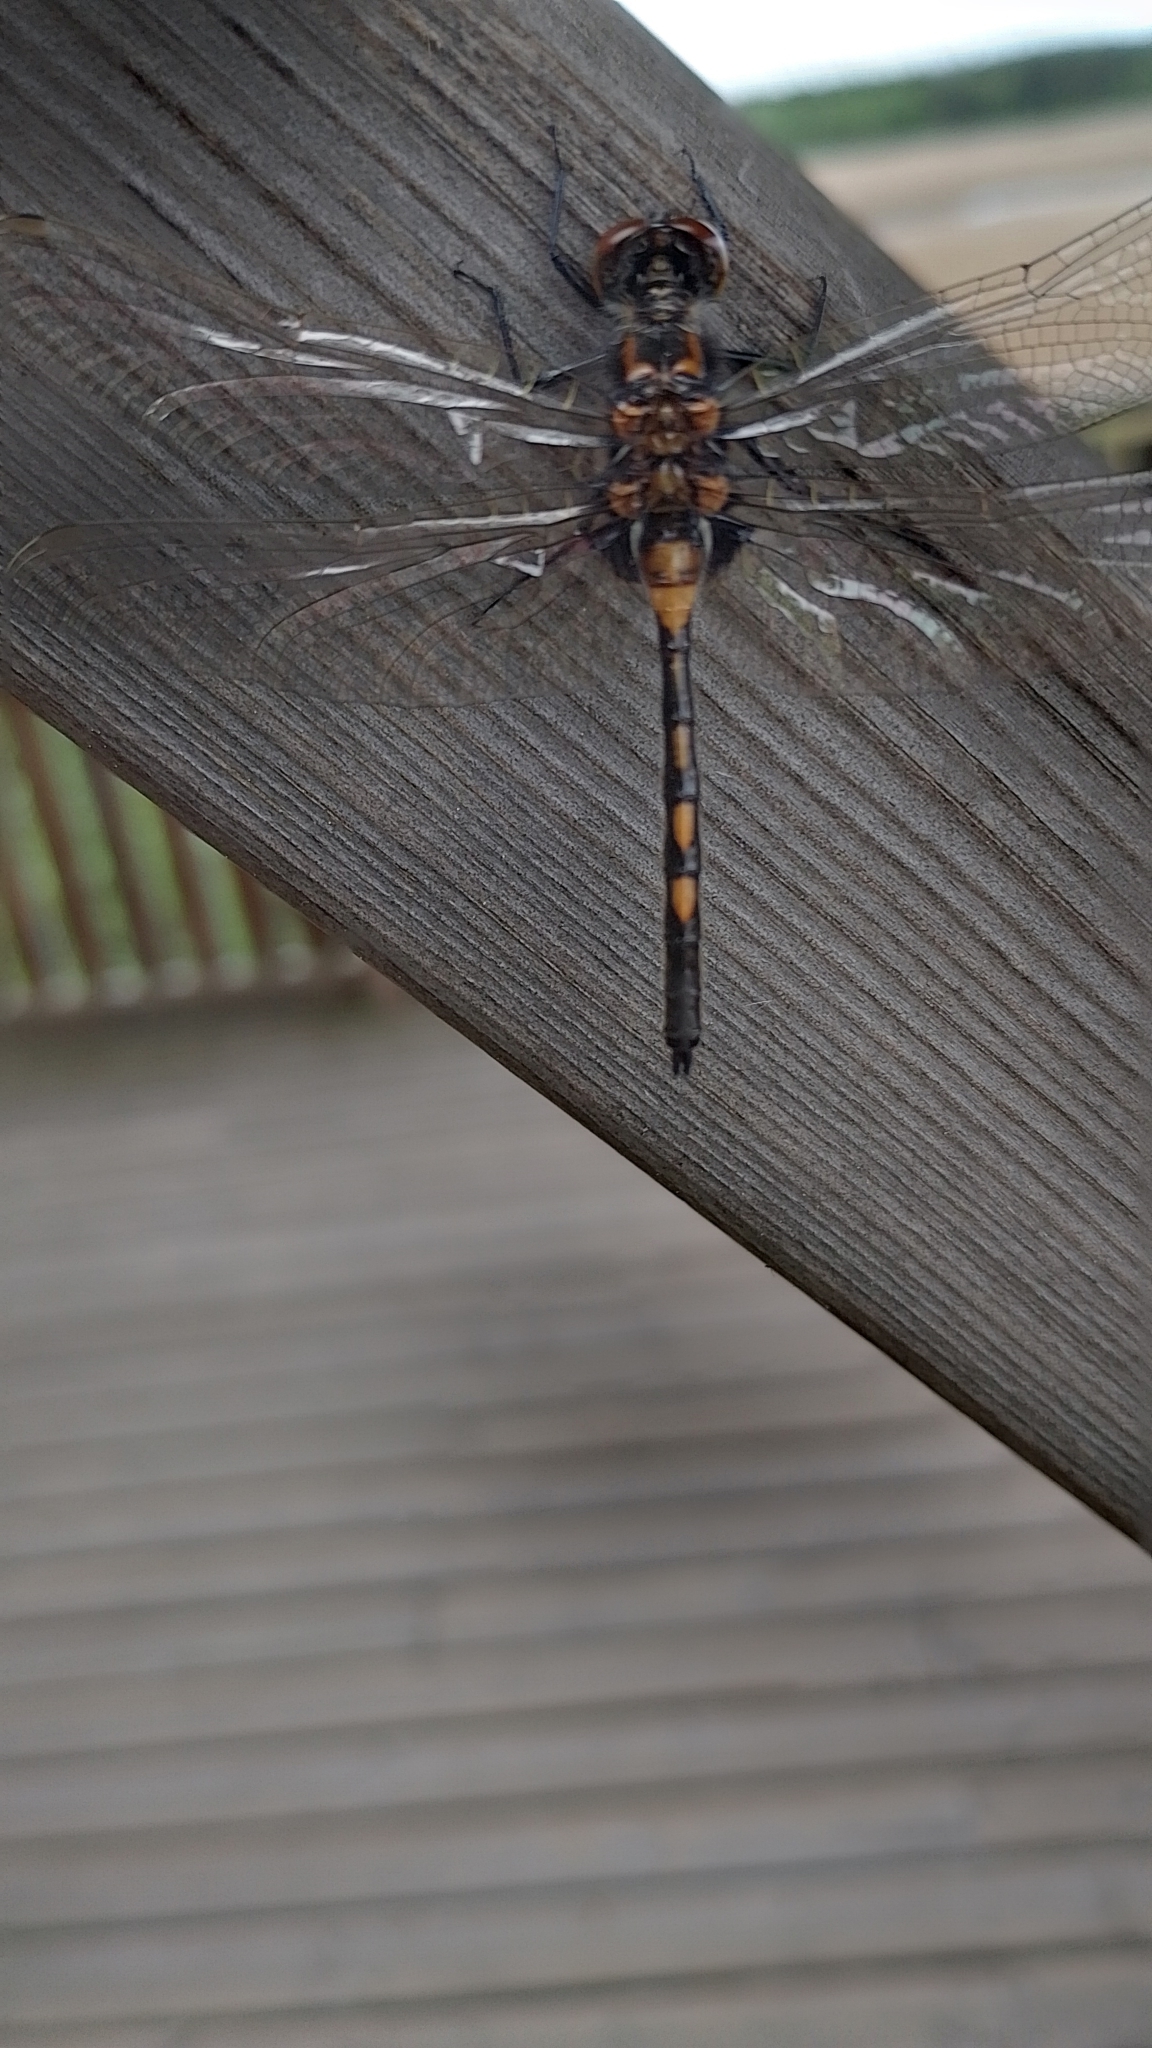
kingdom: Animalia
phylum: Arthropoda
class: Insecta
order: Odonata
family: Libellulidae
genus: Leucorrhinia
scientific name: Leucorrhinia rubicunda
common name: Ruby whiteface
